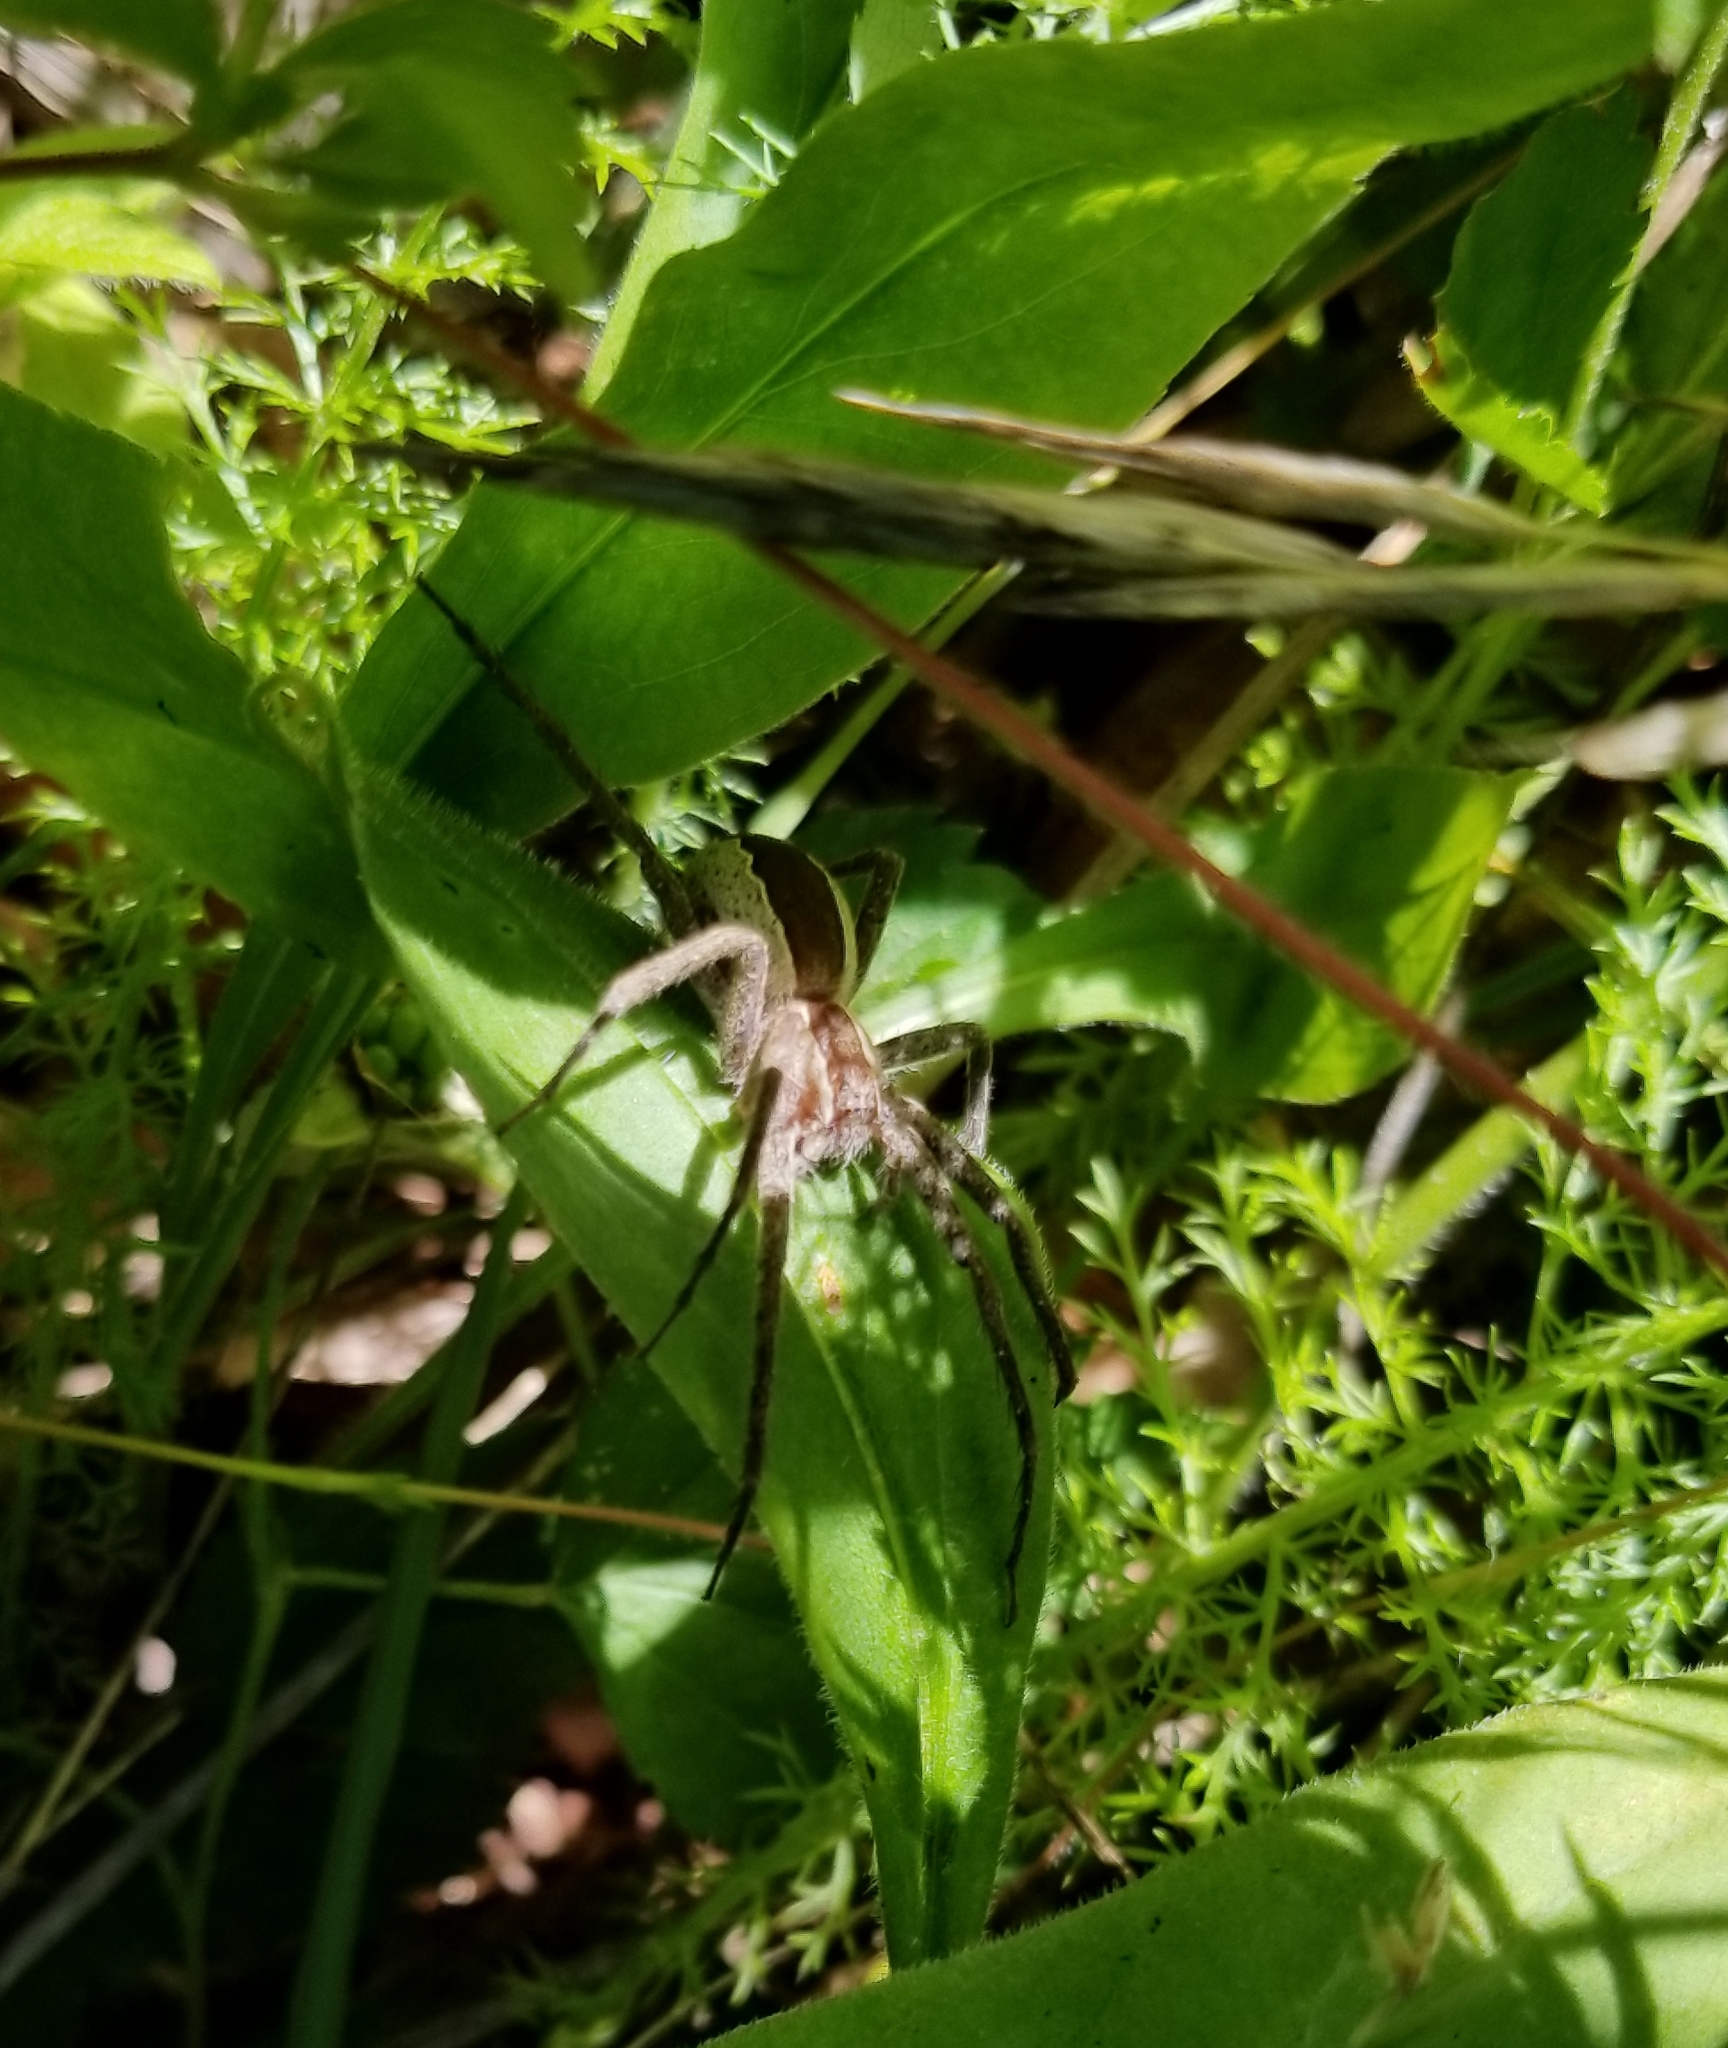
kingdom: Animalia
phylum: Arthropoda
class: Arachnida
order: Araneae
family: Pisauridae
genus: Pisaurina
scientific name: Pisaurina mira
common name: American nursery web spider
